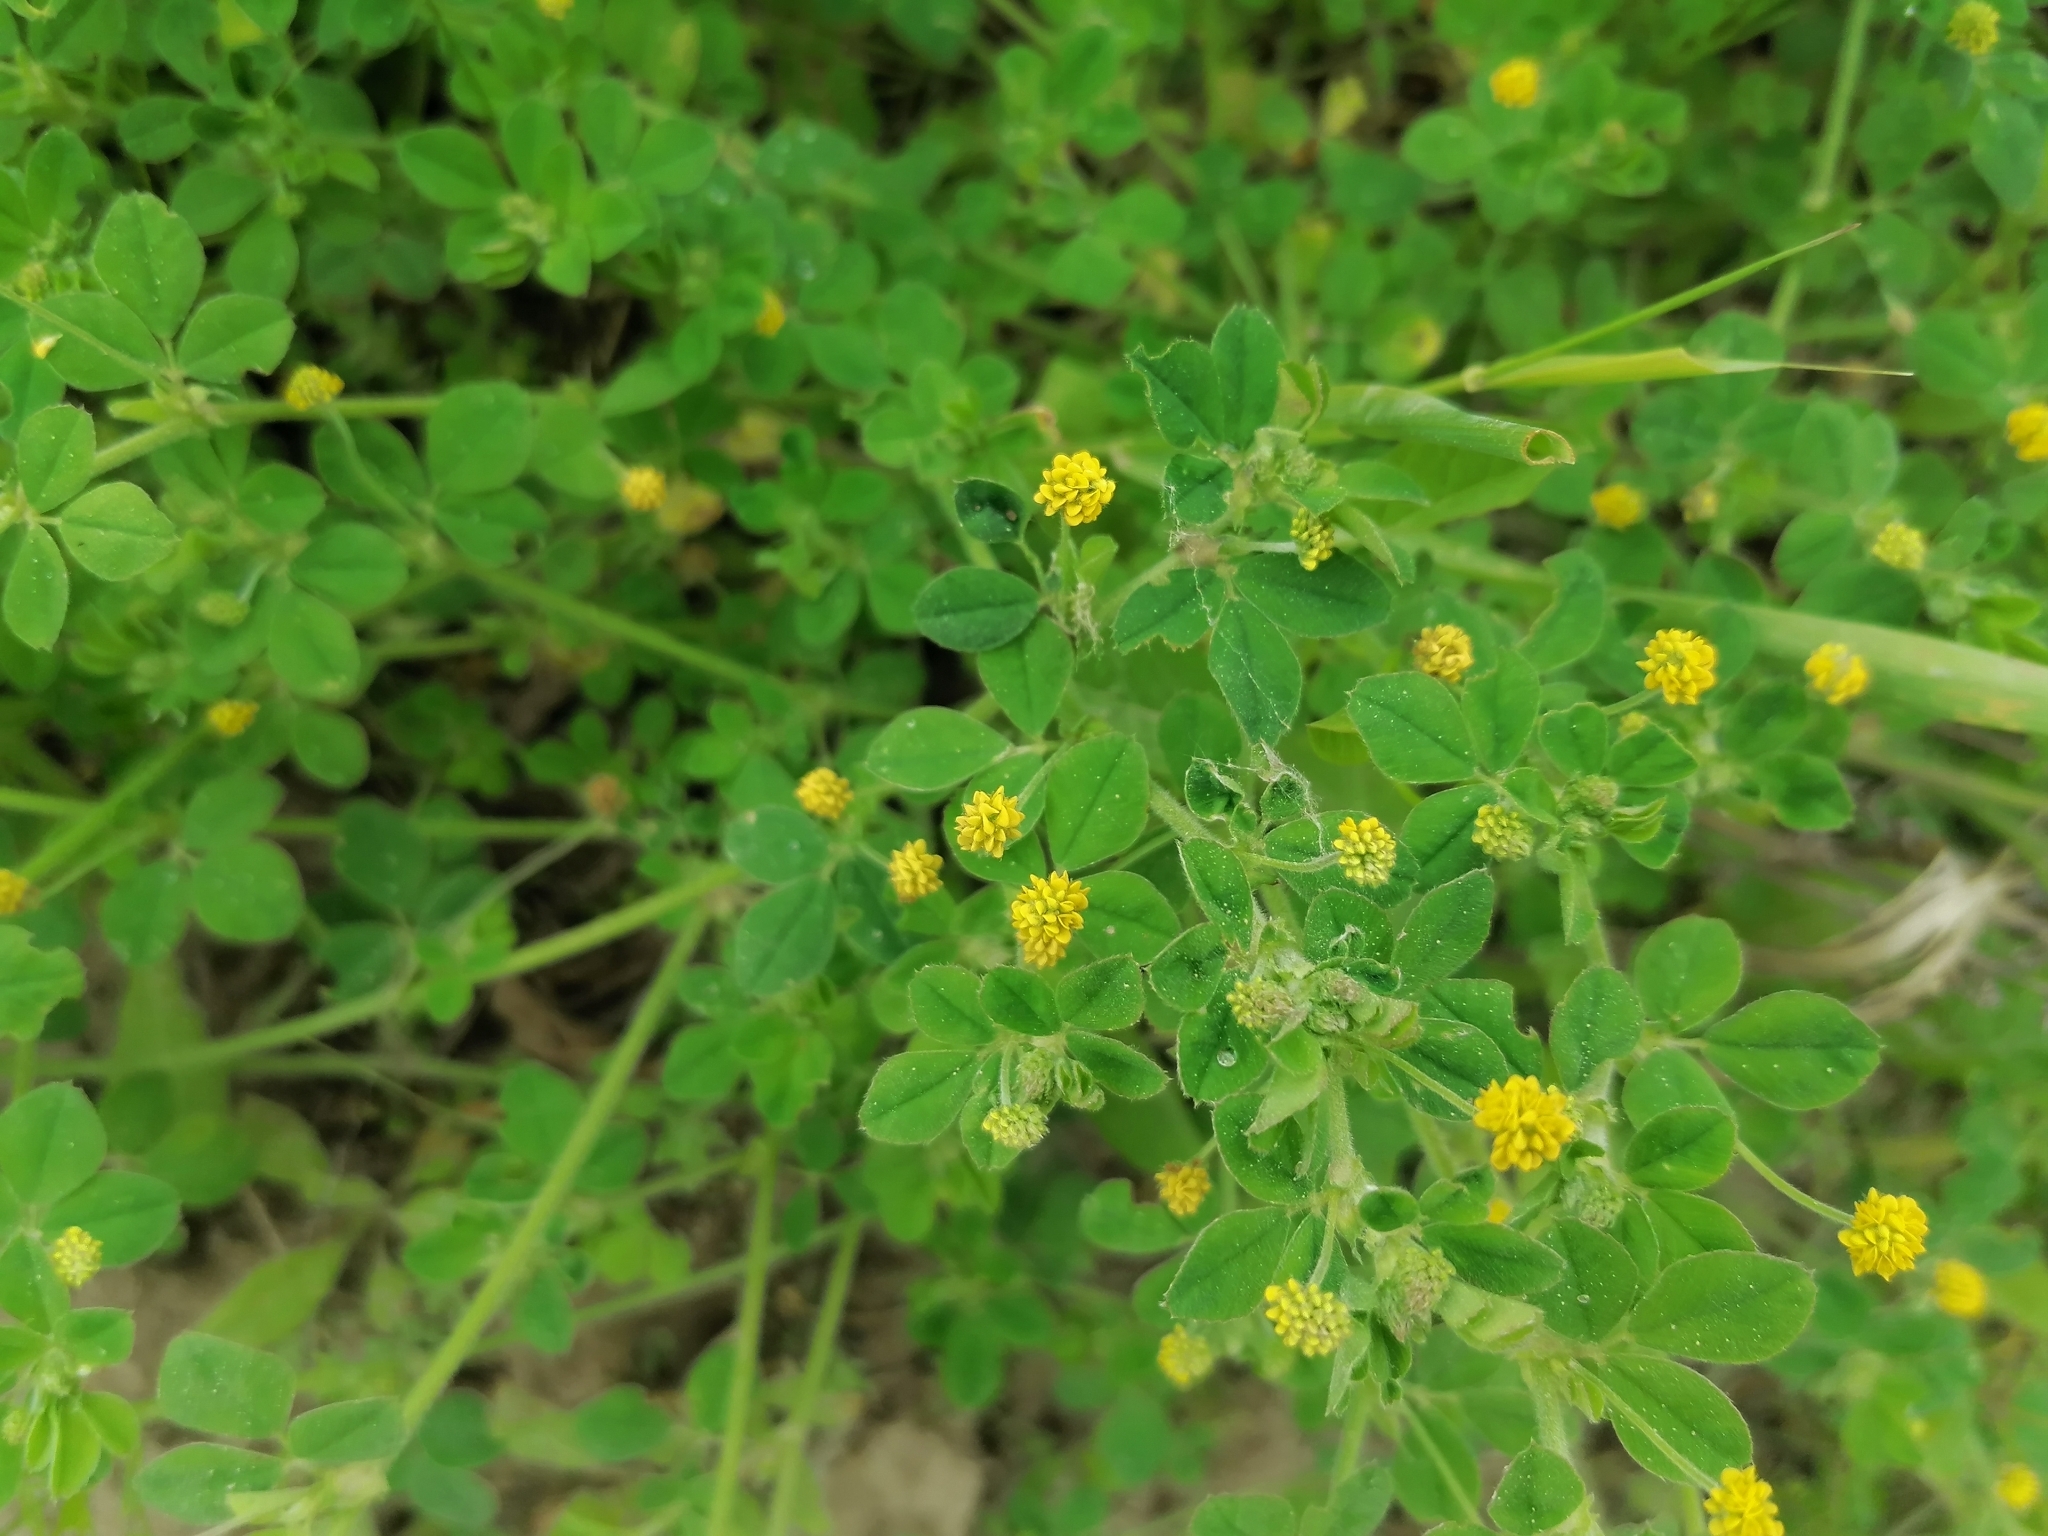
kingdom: Plantae
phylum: Tracheophyta
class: Magnoliopsida
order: Fabales
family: Fabaceae
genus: Medicago
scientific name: Medicago lupulina
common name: Black medick
